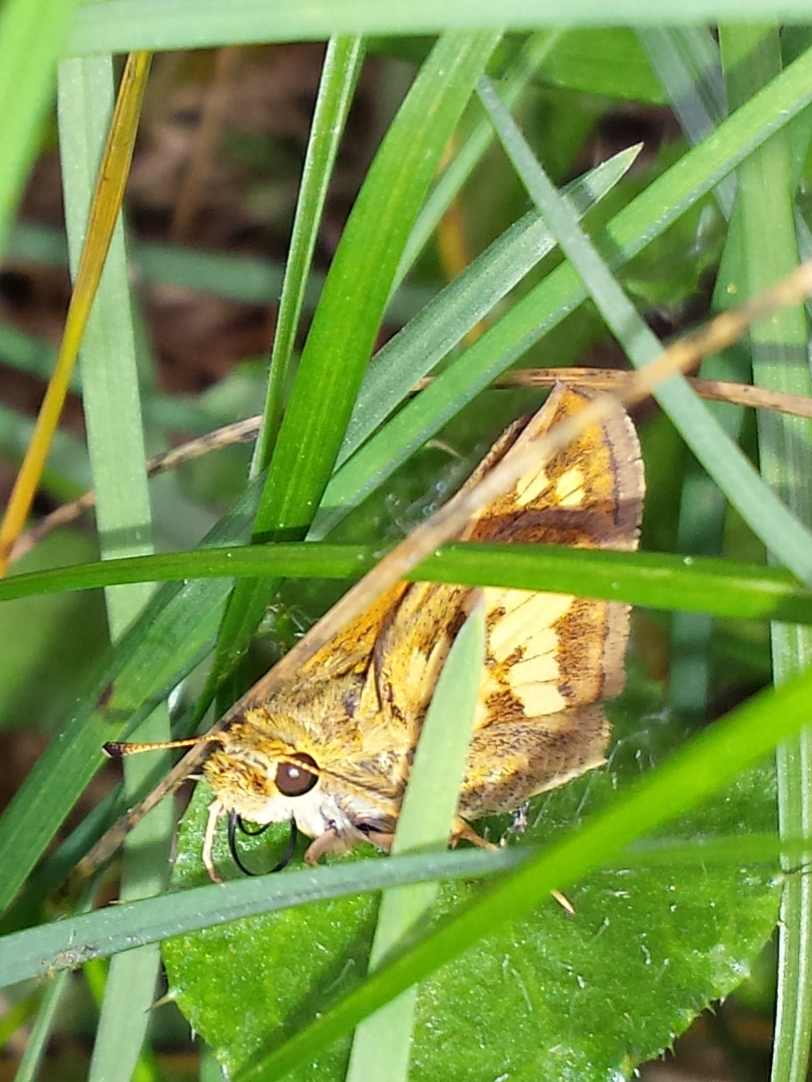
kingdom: Animalia
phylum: Arthropoda
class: Insecta
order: Lepidoptera
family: Hesperiidae
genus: Polites
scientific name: Polites coras
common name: Peck's skipper
